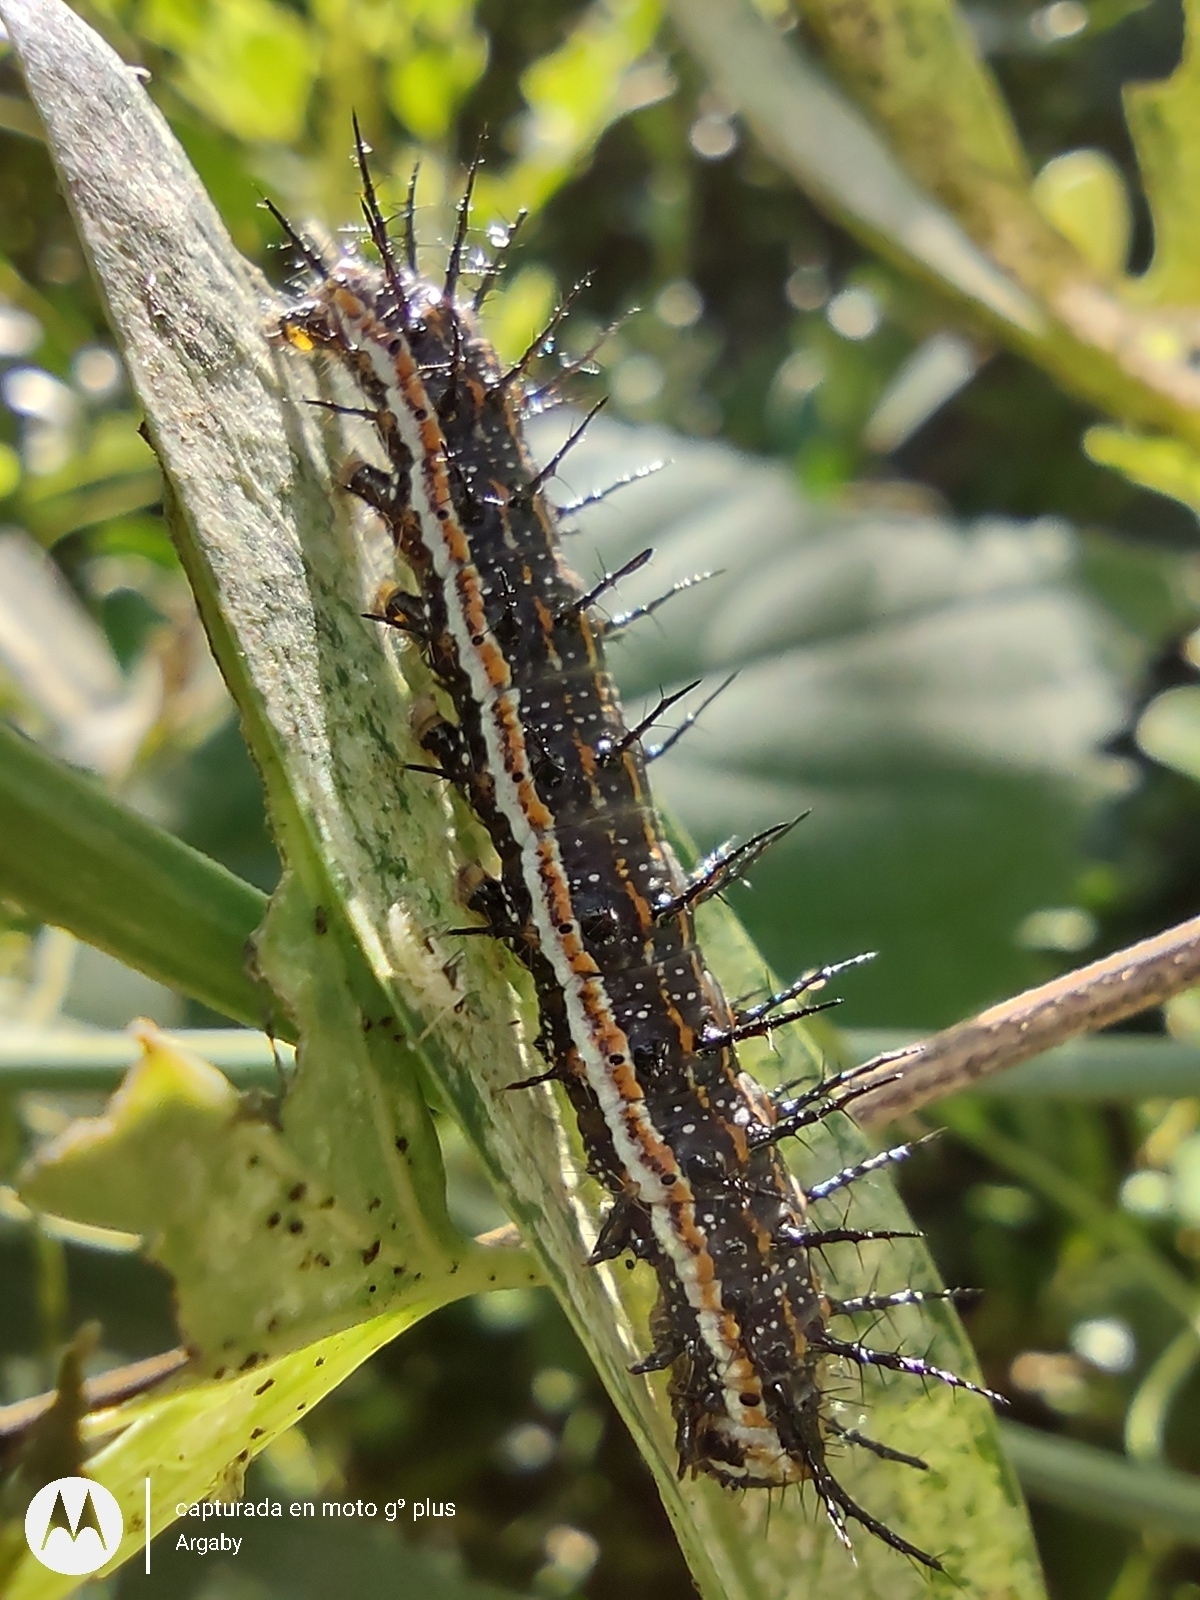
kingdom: Animalia
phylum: Arthropoda
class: Insecta
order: Lepidoptera
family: Nymphalidae
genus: Dione
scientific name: Dione vanillae
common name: Gulf fritillary
